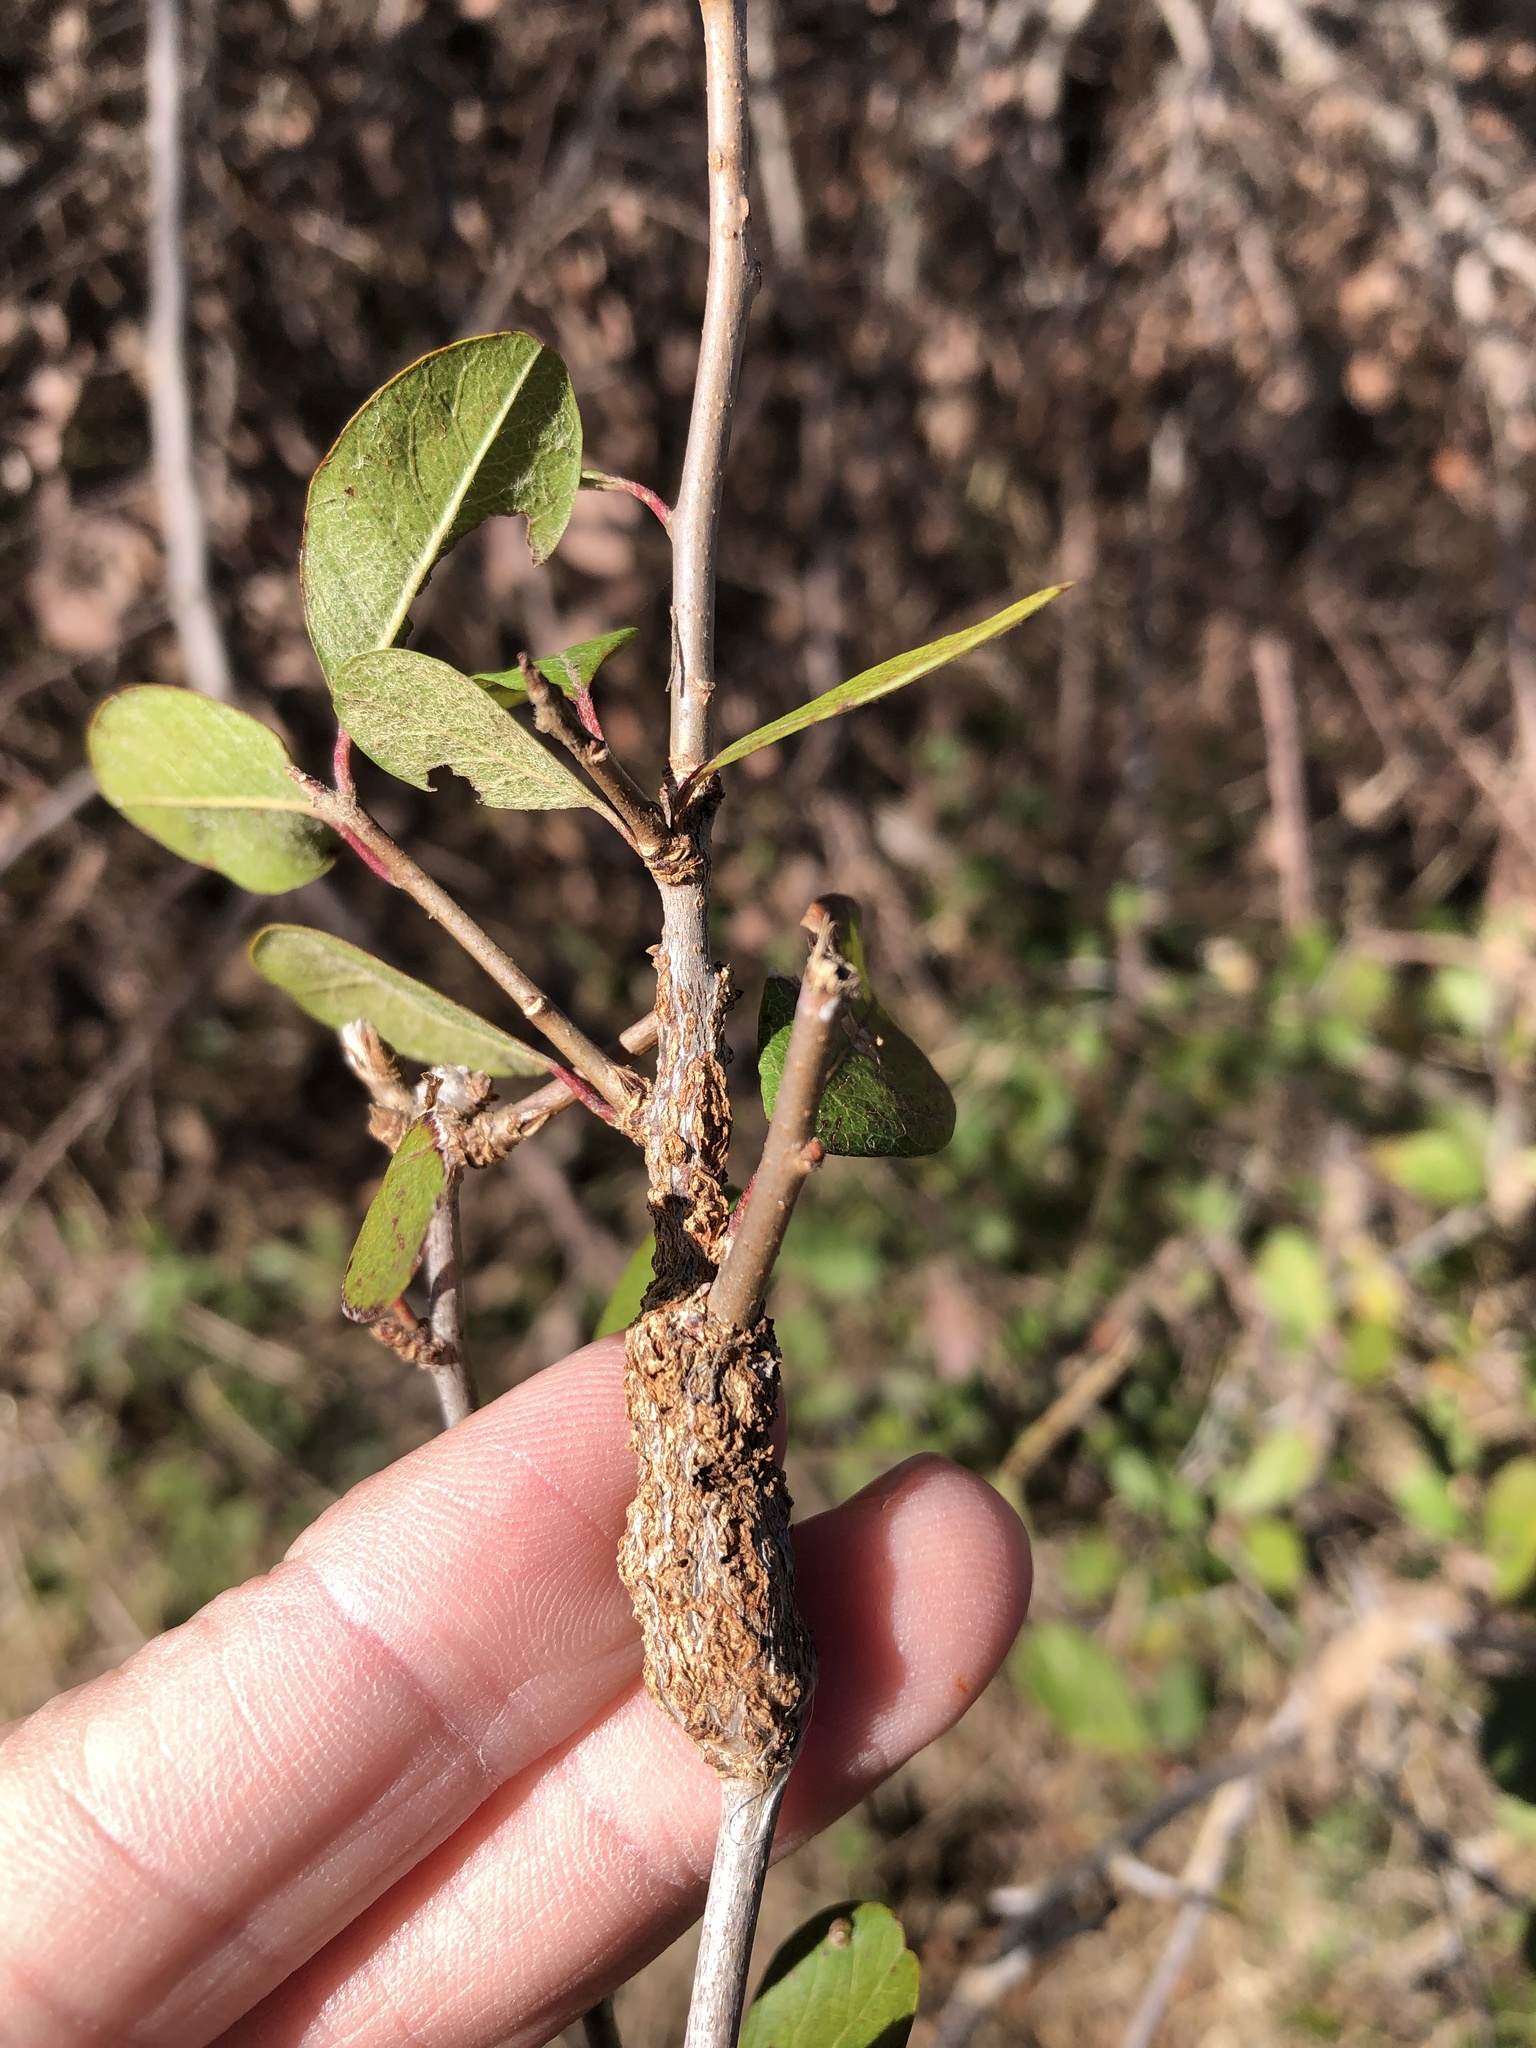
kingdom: Animalia
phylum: Arthropoda
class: Insecta
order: Diptera
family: Cecidomyiidae
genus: Bruggmanniella
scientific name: Bruggmanniella bumeliae
